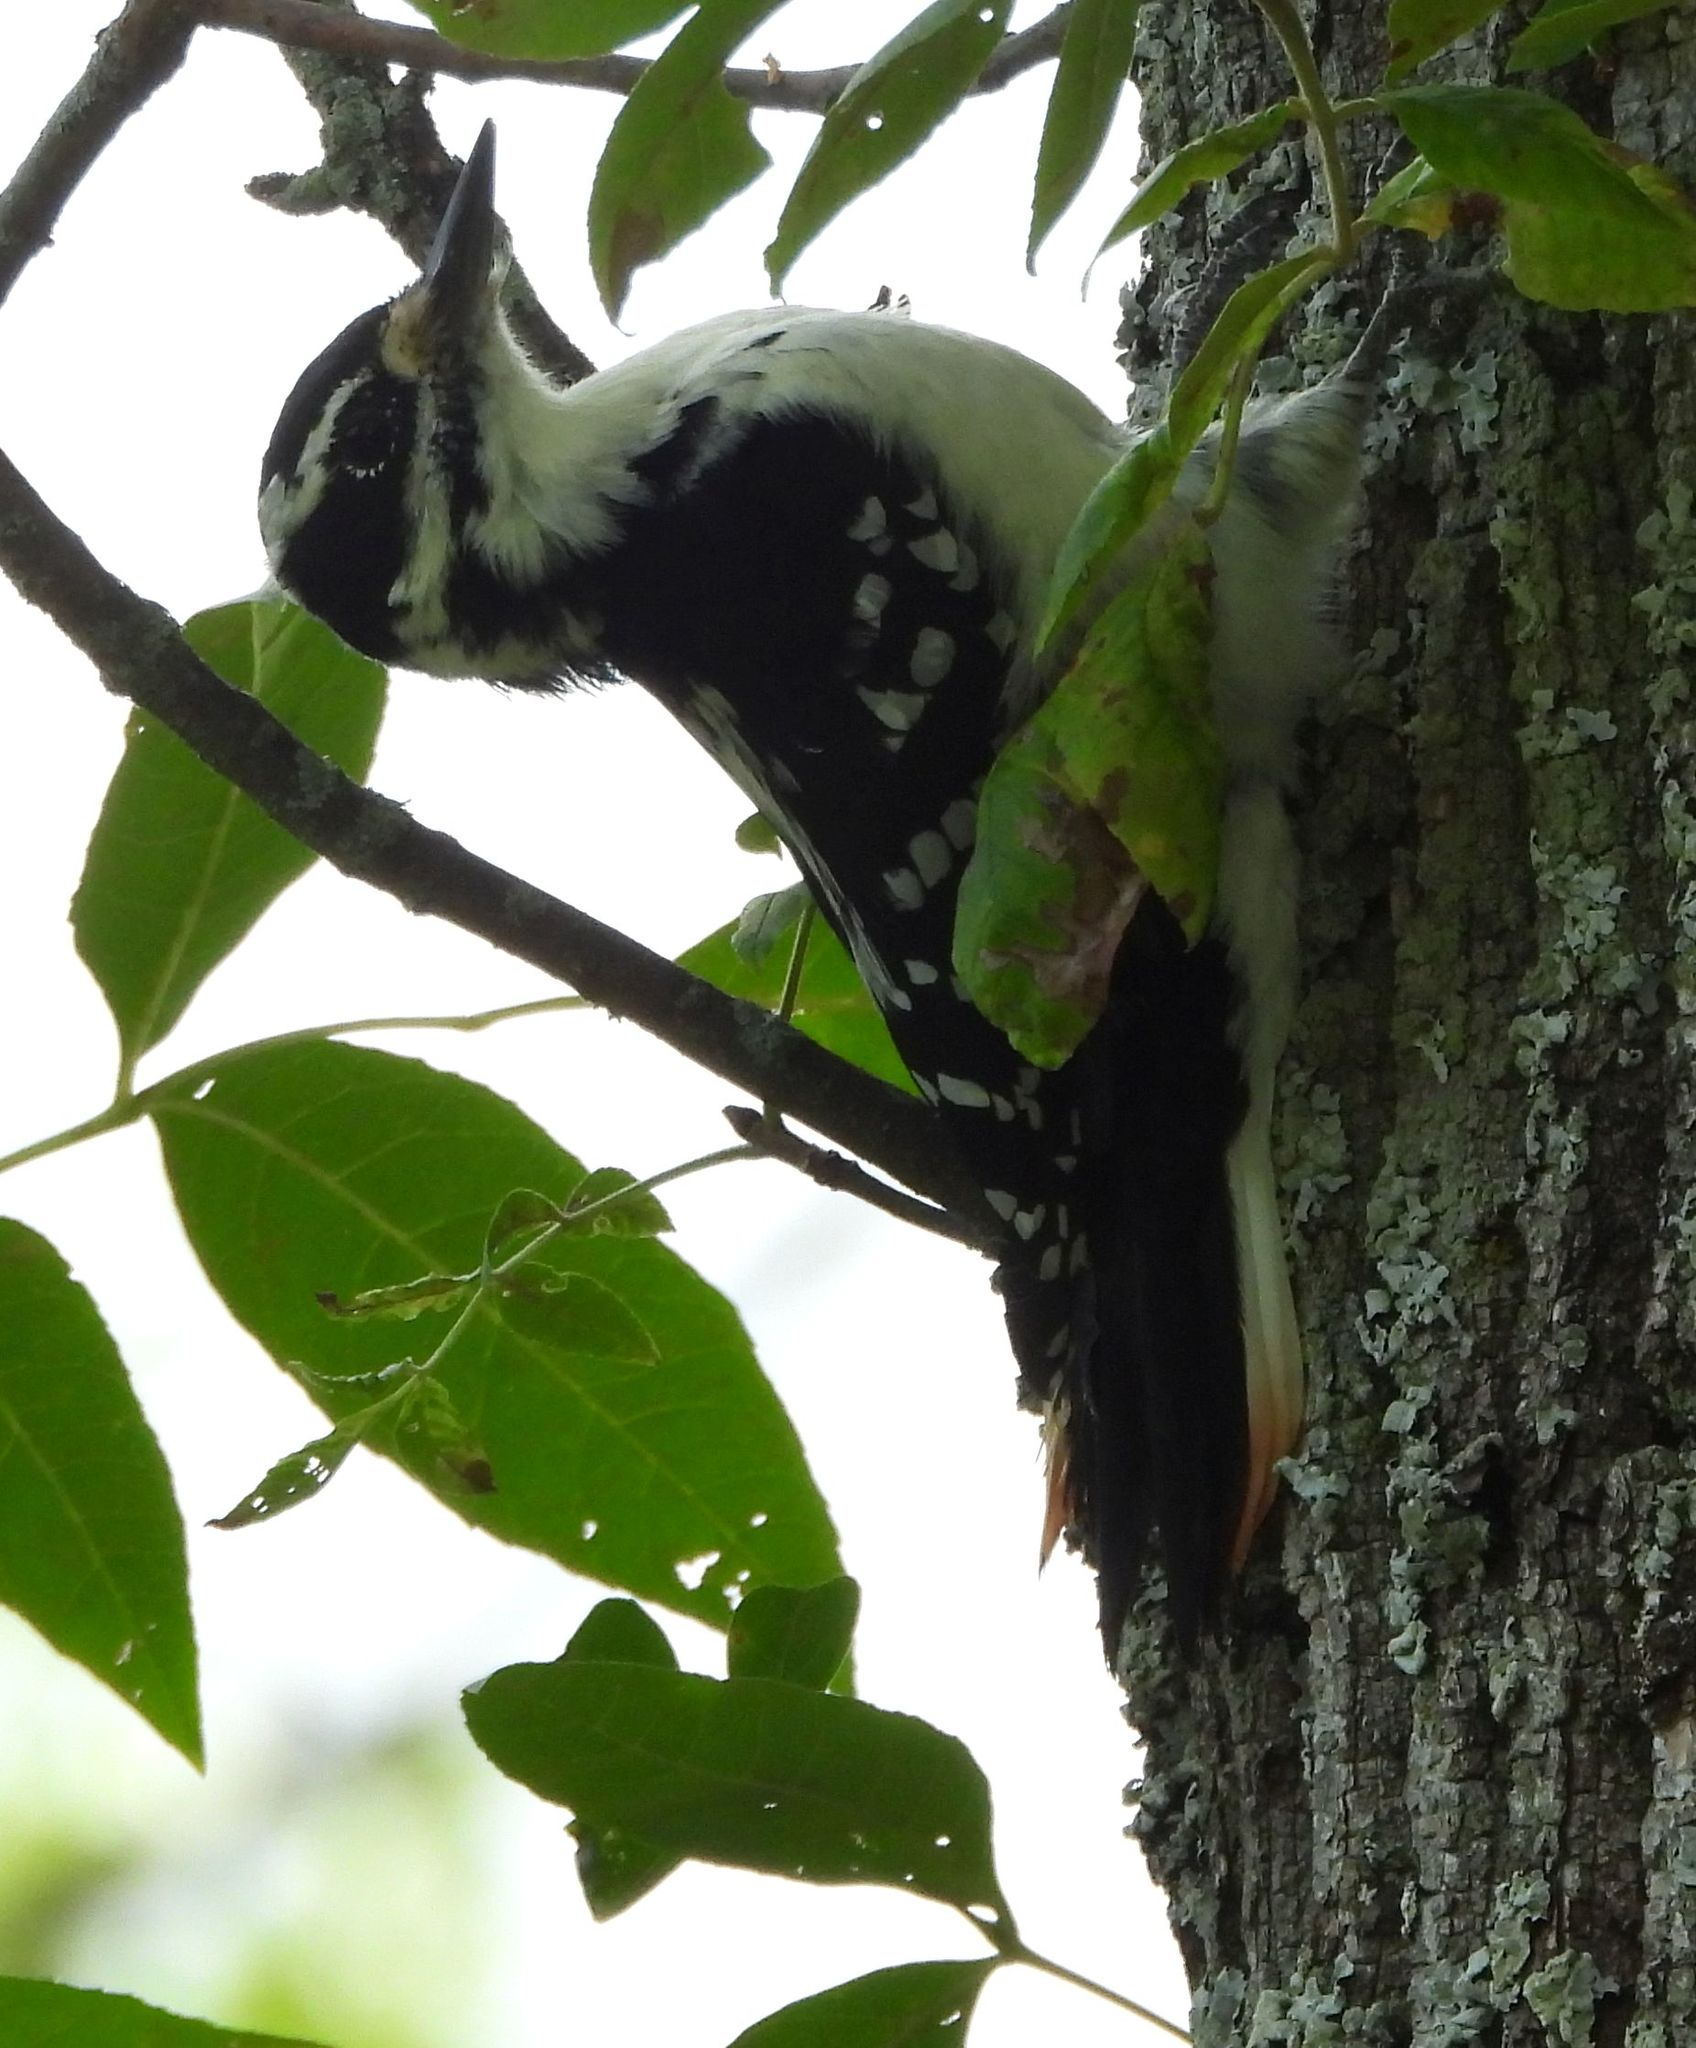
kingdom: Animalia
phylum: Chordata
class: Aves
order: Piciformes
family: Picidae
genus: Leuconotopicus
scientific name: Leuconotopicus villosus
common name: Hairy woodpecker
